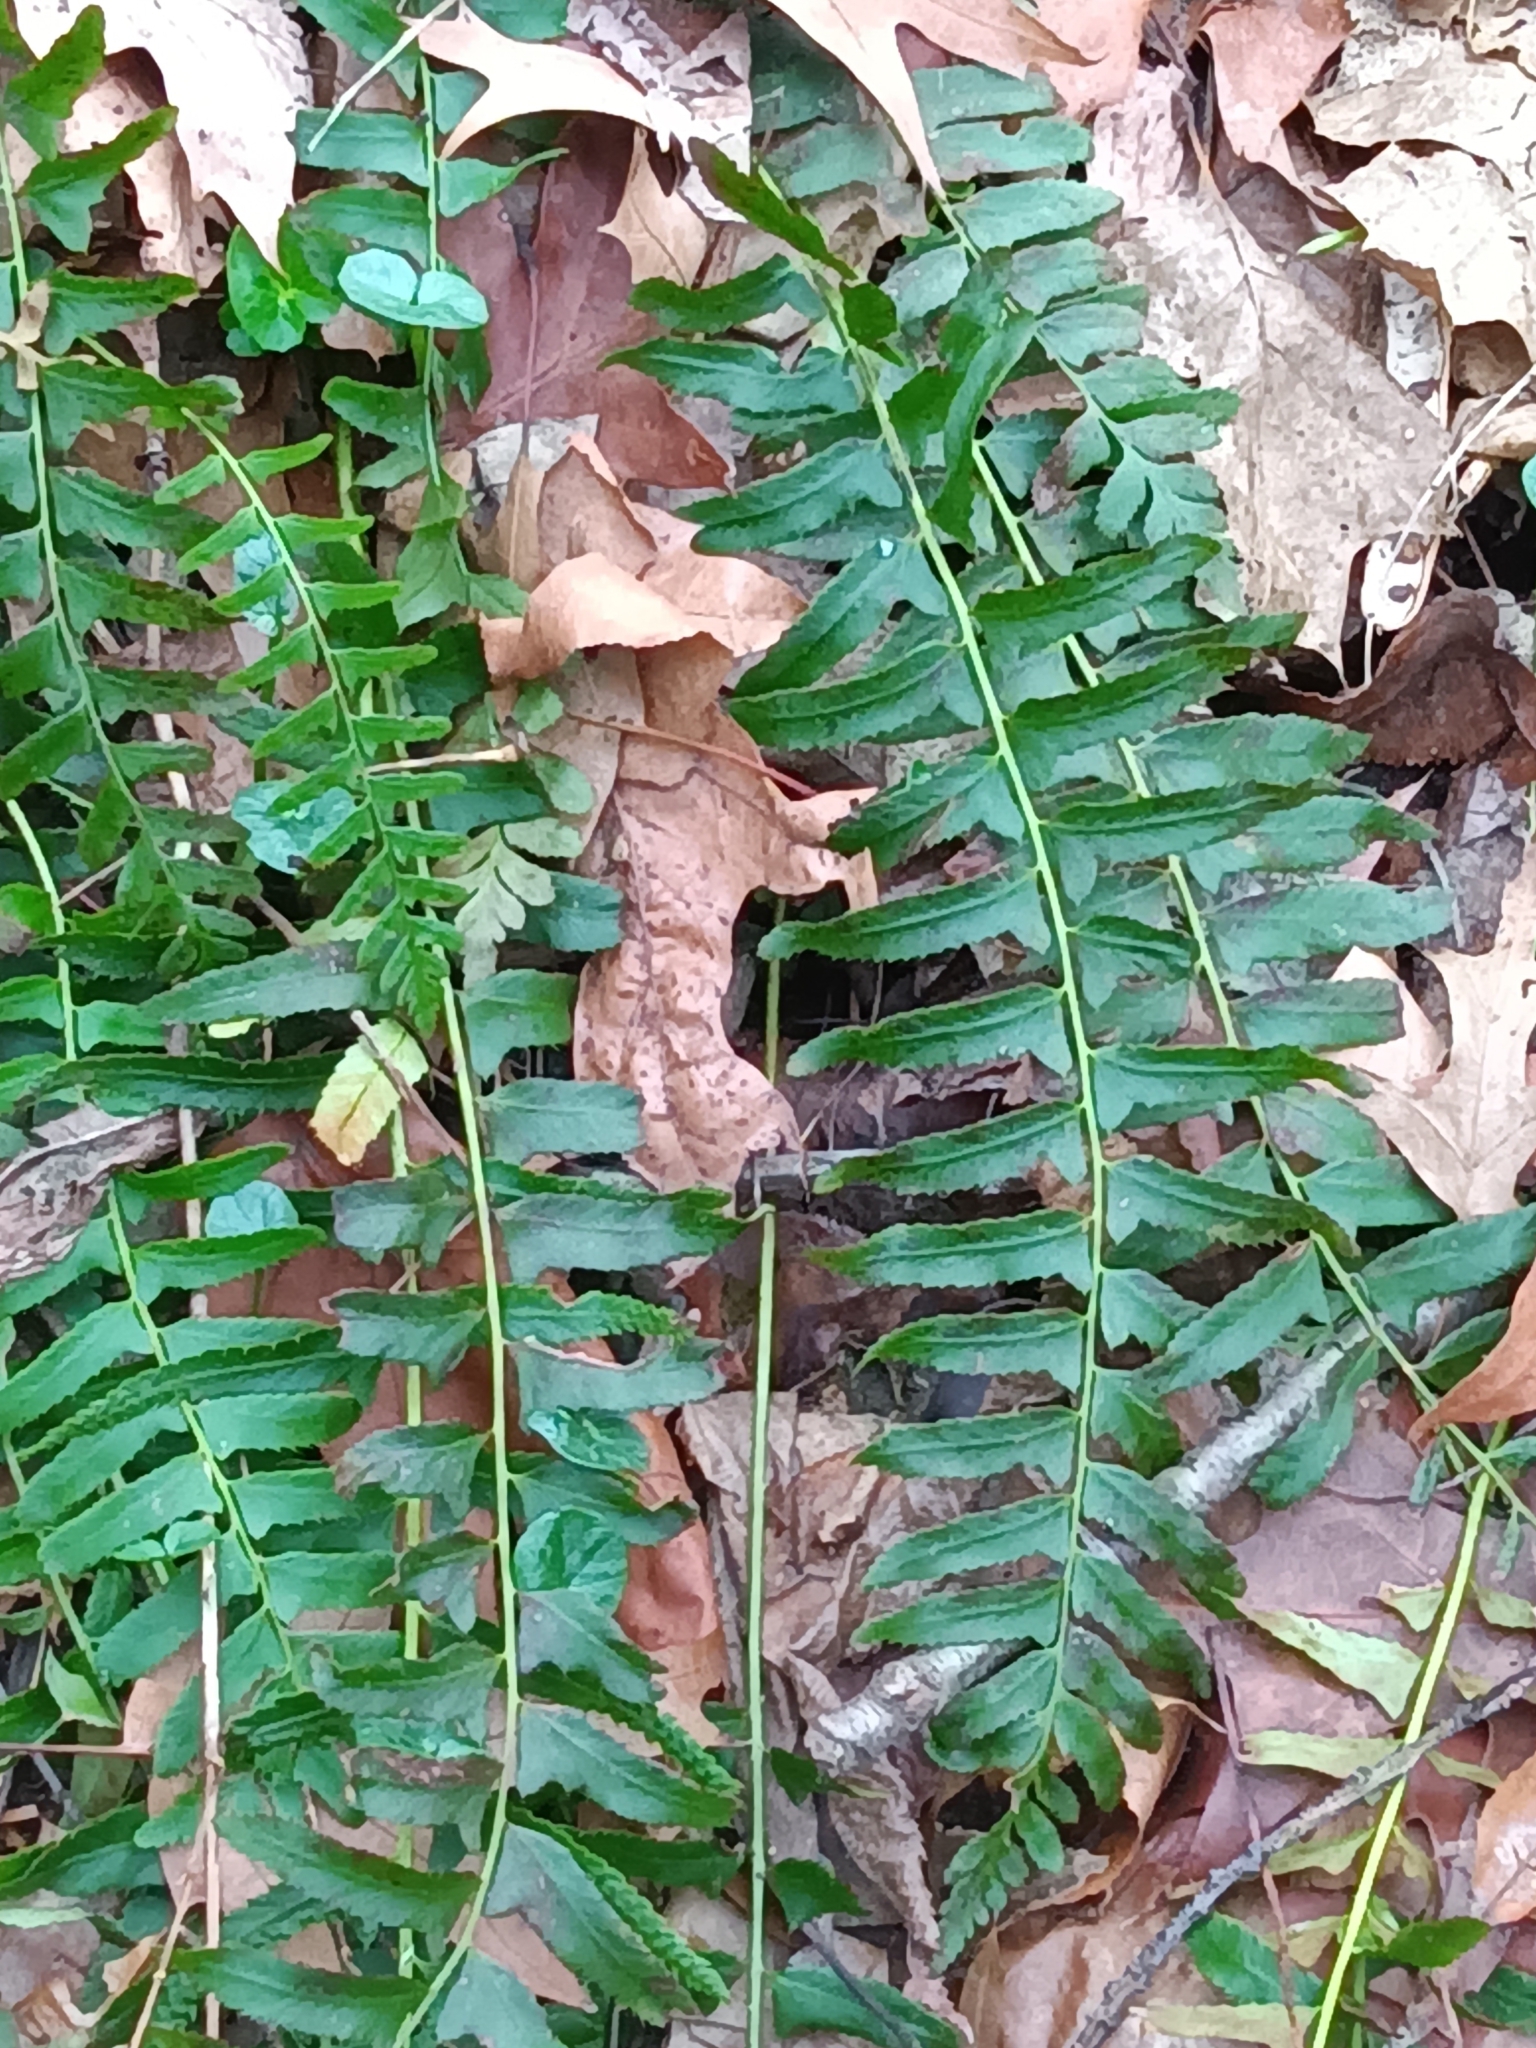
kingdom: Plantae
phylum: Tracheophyta
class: Polypodiopsida
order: Polypodiales
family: Dryopteridaceae
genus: Polystichum
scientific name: Polystichum acrostichoides
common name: Christmas fern
